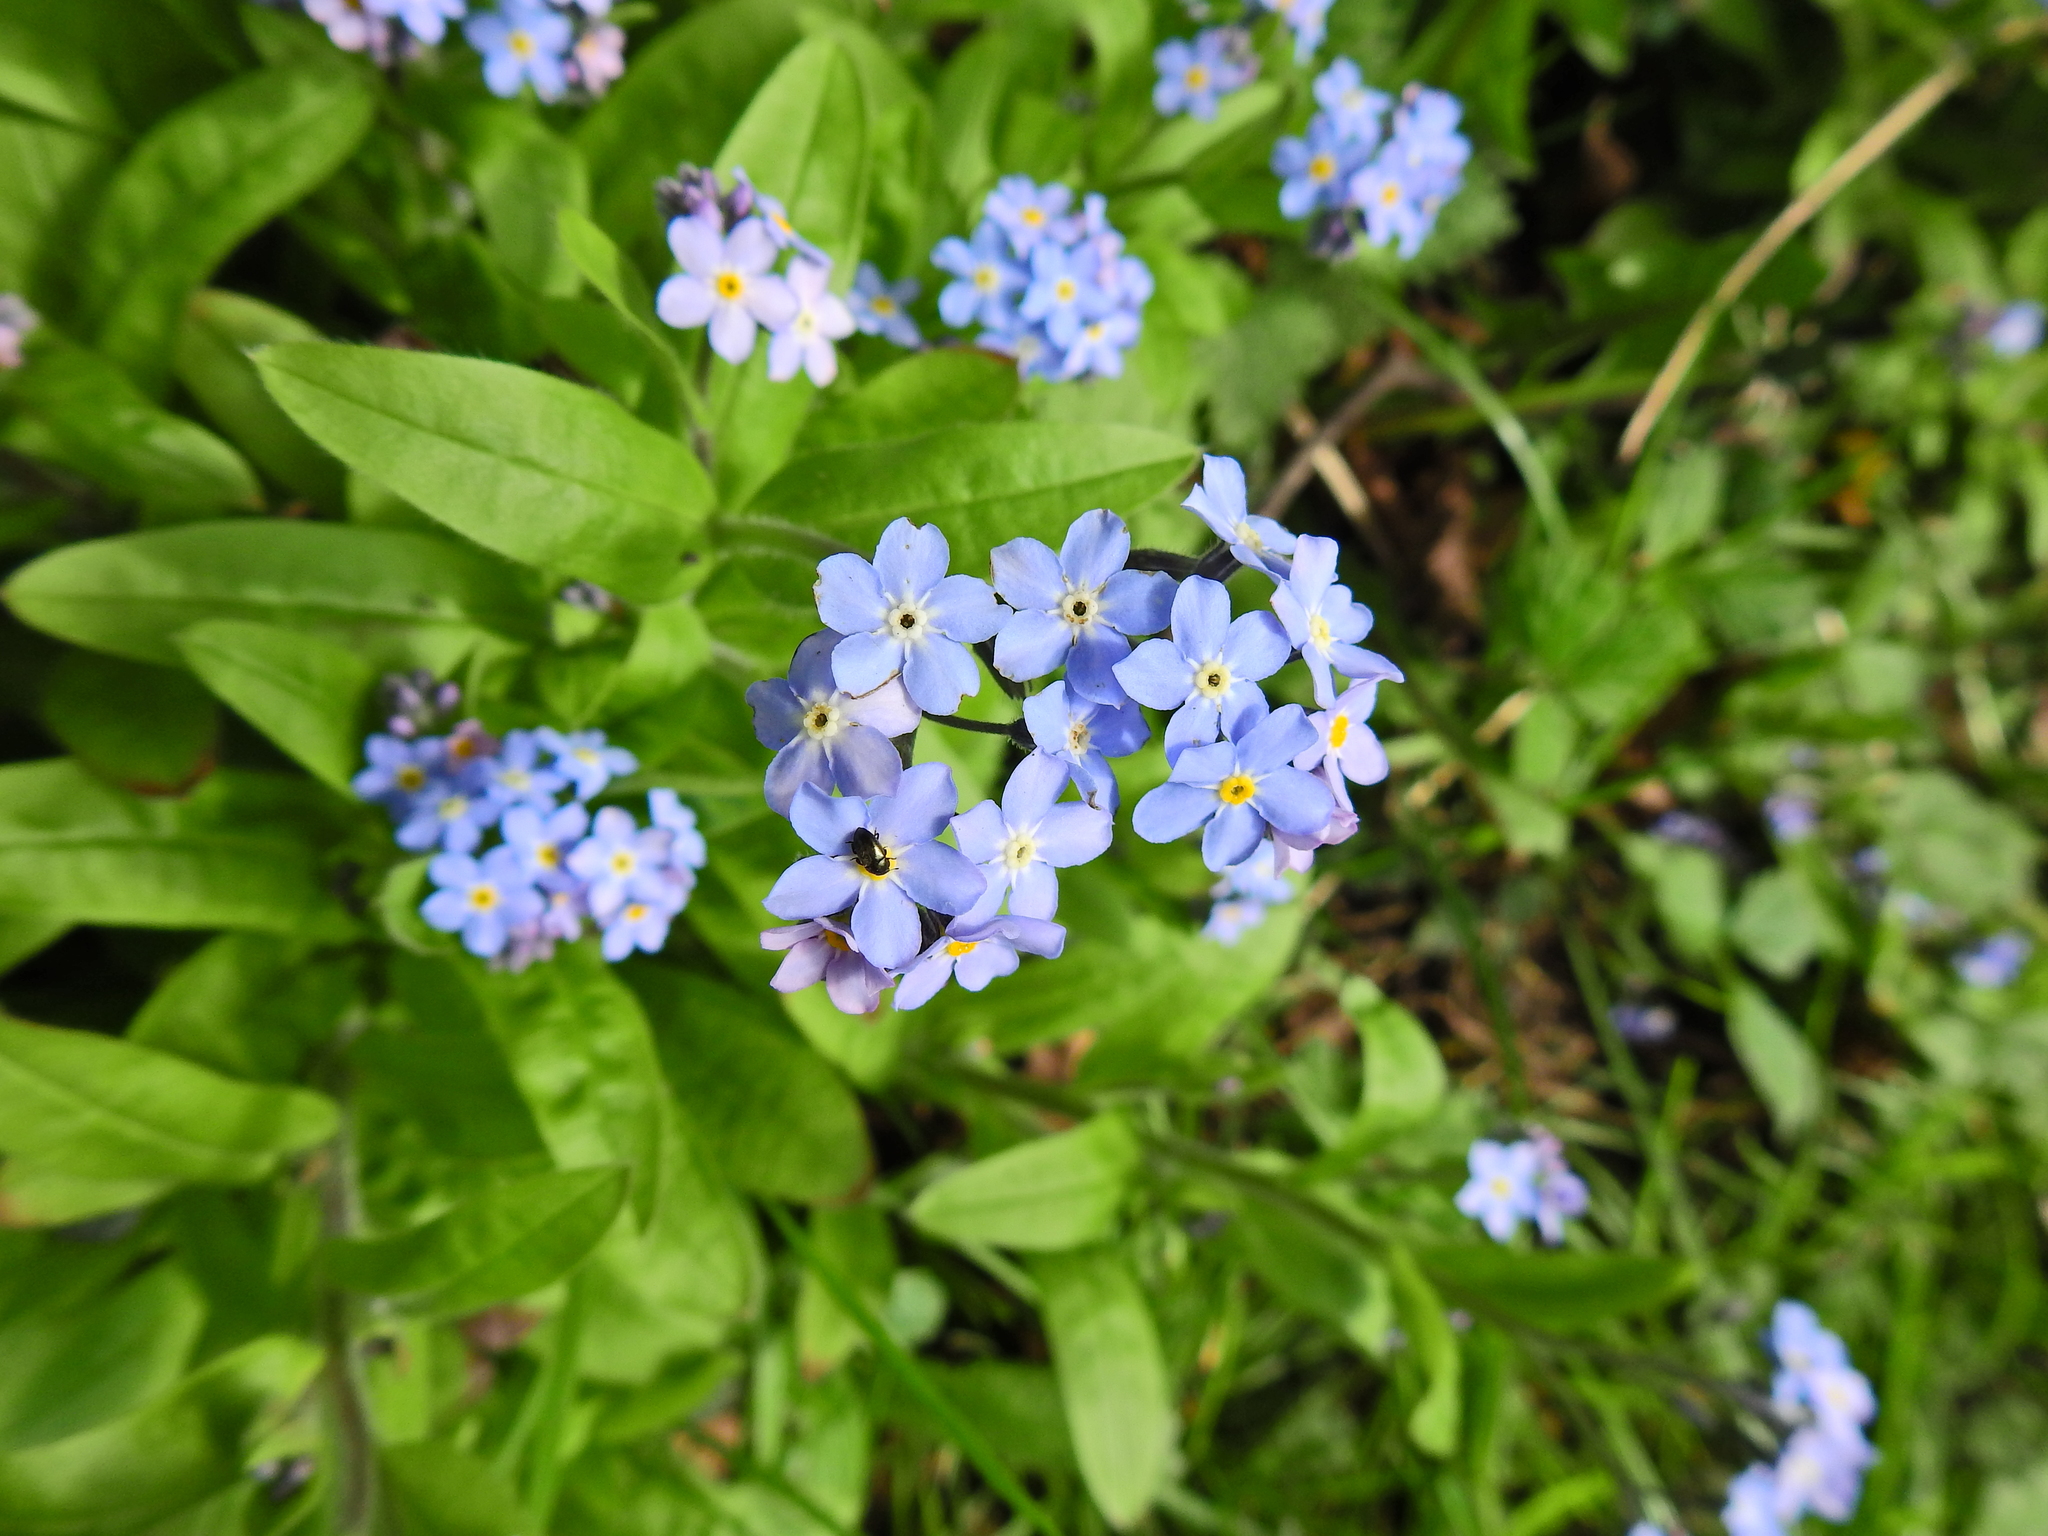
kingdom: Plantae
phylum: Tracheophyta
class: Magnoliopsida
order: Boraginales
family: Boraginaceae
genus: Myosotis
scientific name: Myosotis sylvatica
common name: Wood forget-me-not
